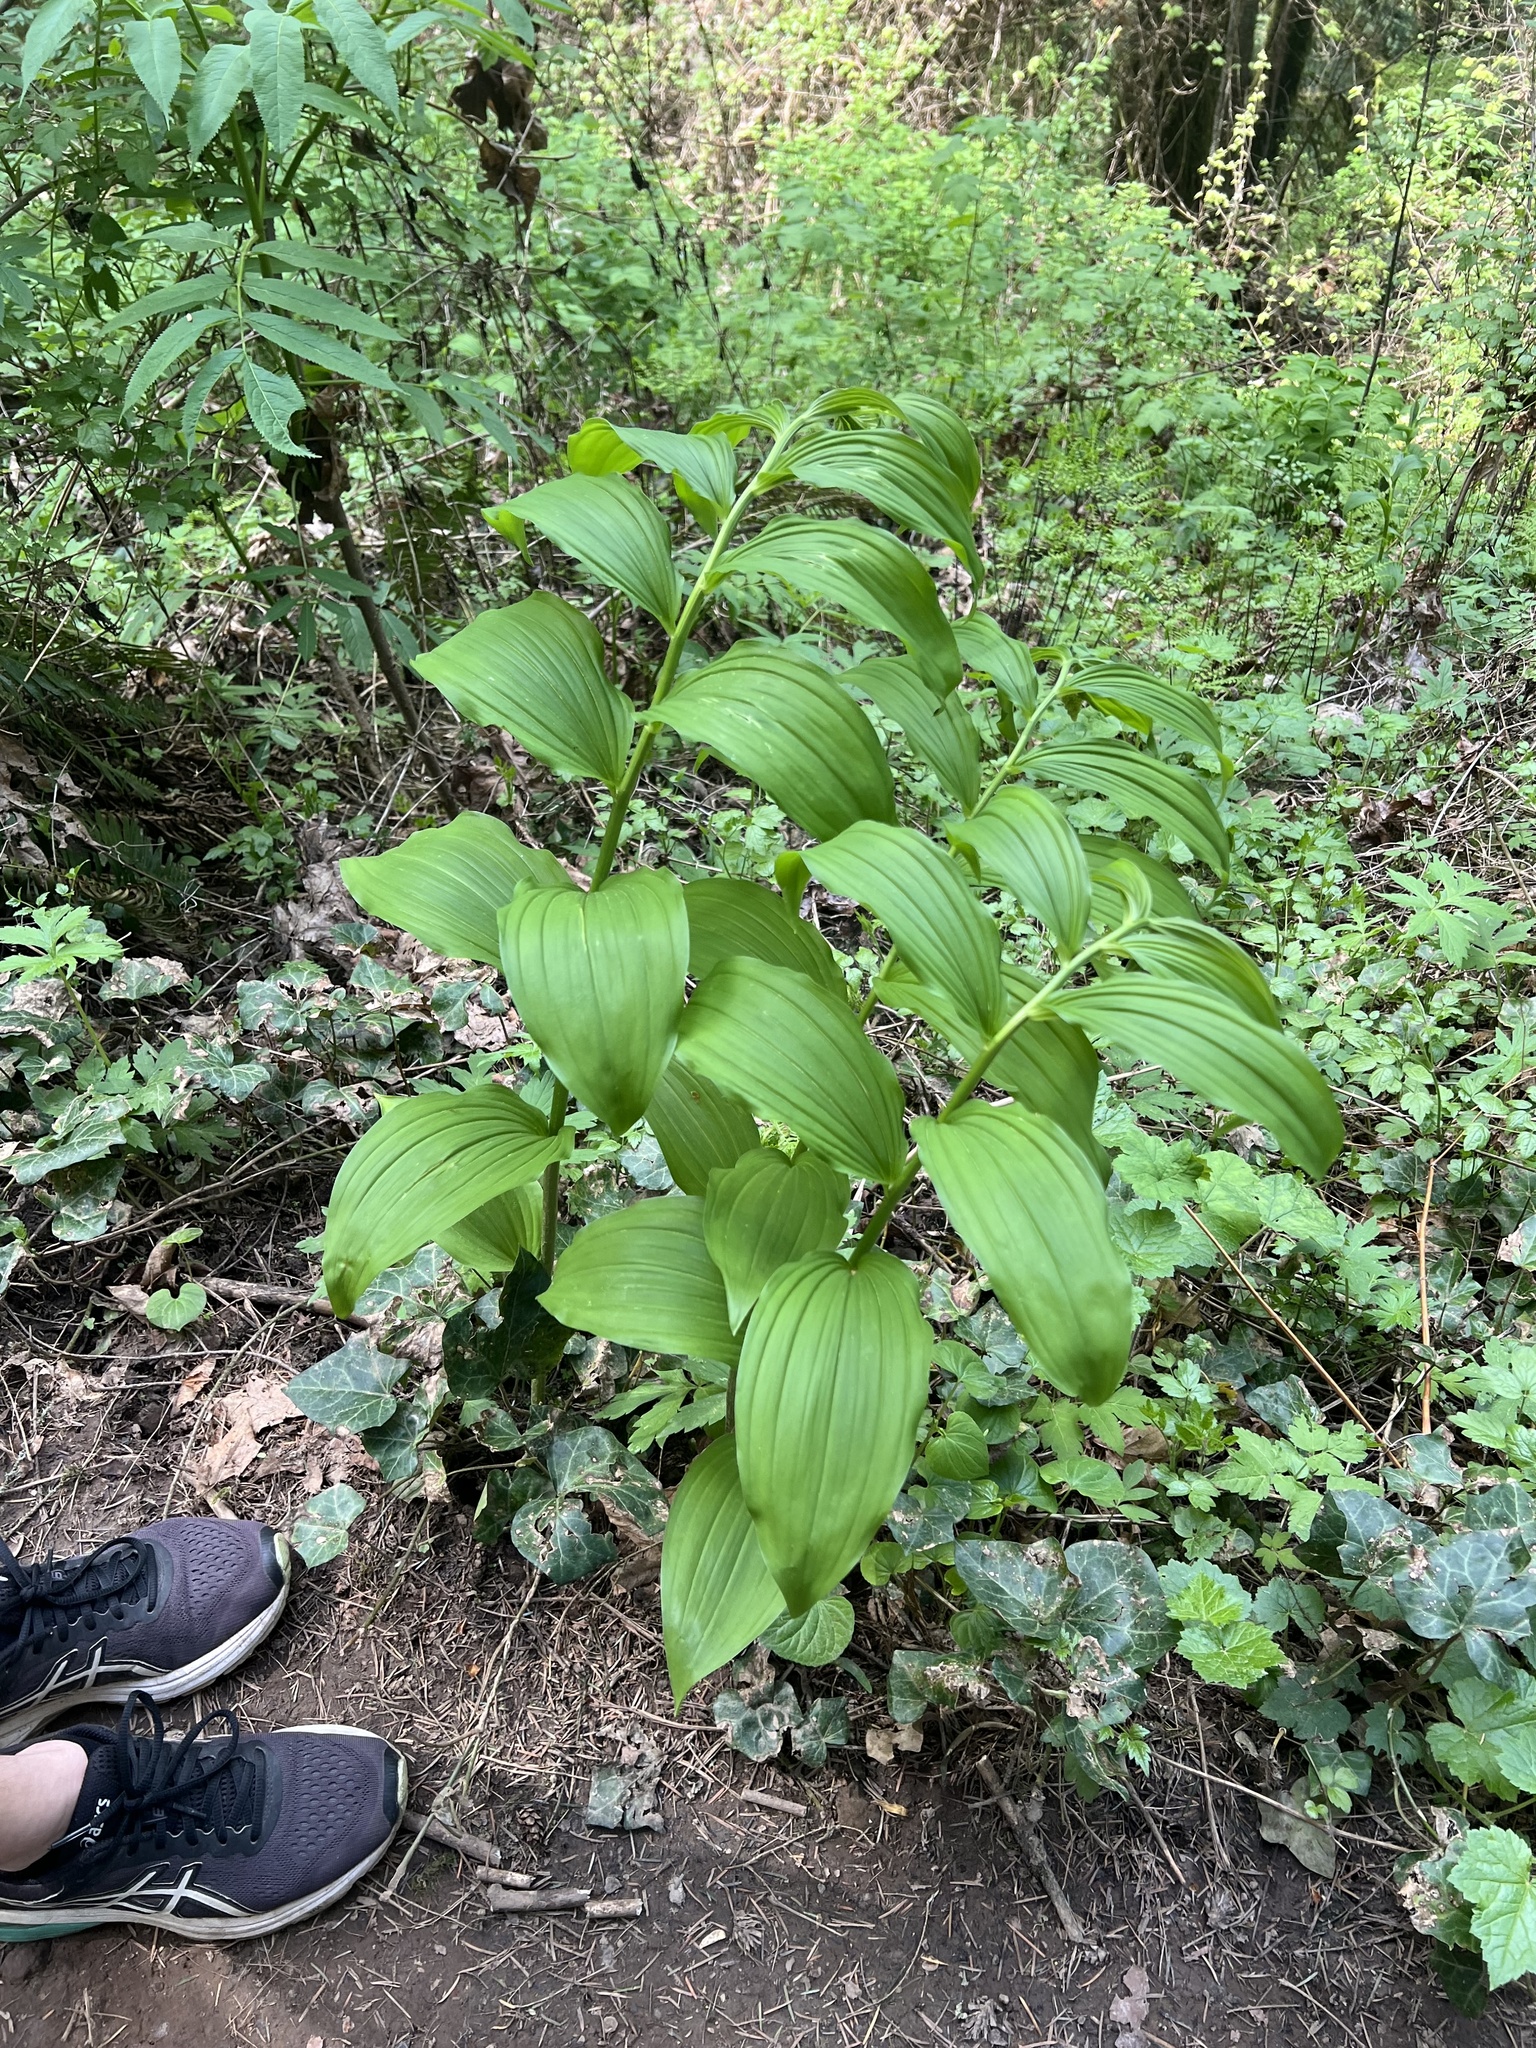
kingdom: Plantae
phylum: Tracheophyta
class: Liliopsida
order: Asparagales
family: Asparagaceae
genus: Maianthemum
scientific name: Maianthemum racemosum
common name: False spikenard
